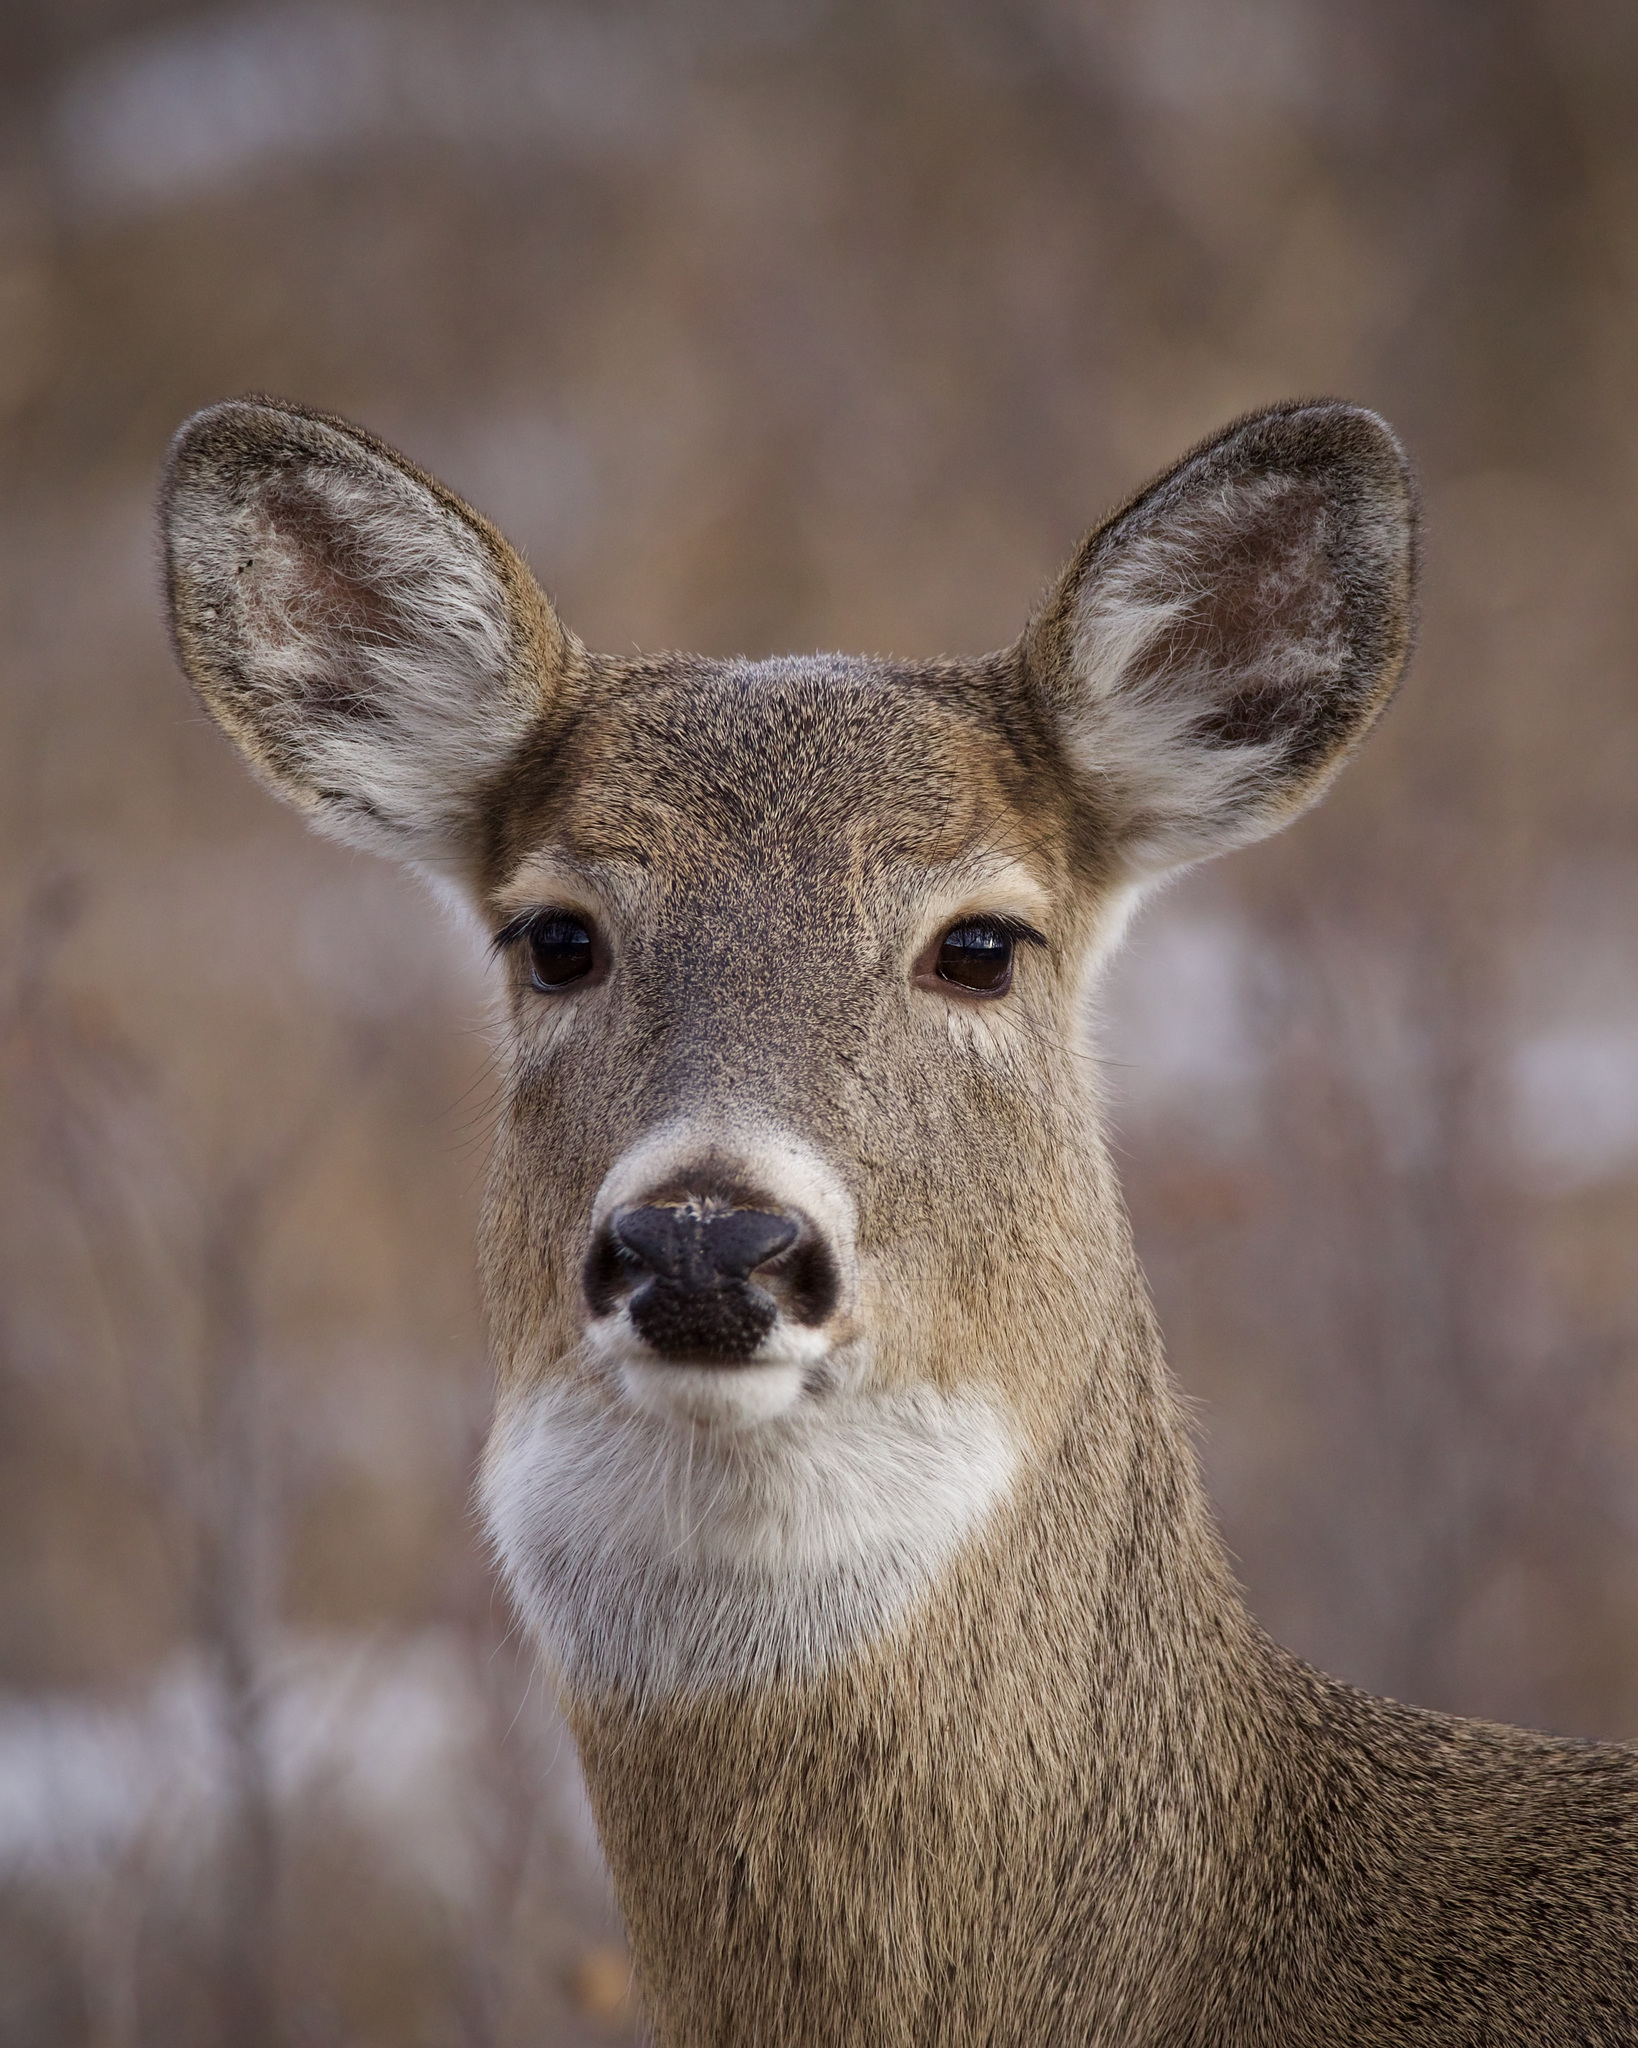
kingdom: Animalia
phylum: Chordata
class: Mammalia
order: Artiodactyla
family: Cervidae
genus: Odocoileus
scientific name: Odocoileus virginianus
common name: White-tailed deer
